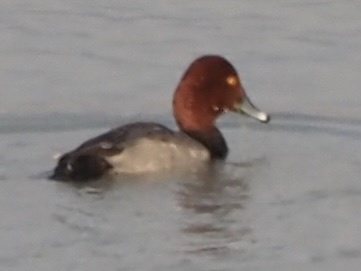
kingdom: Animalia
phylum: Chordata
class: Aves
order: Anseriformes
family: Anatidae
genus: Aythya
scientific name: Aythya americana
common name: Redhead
